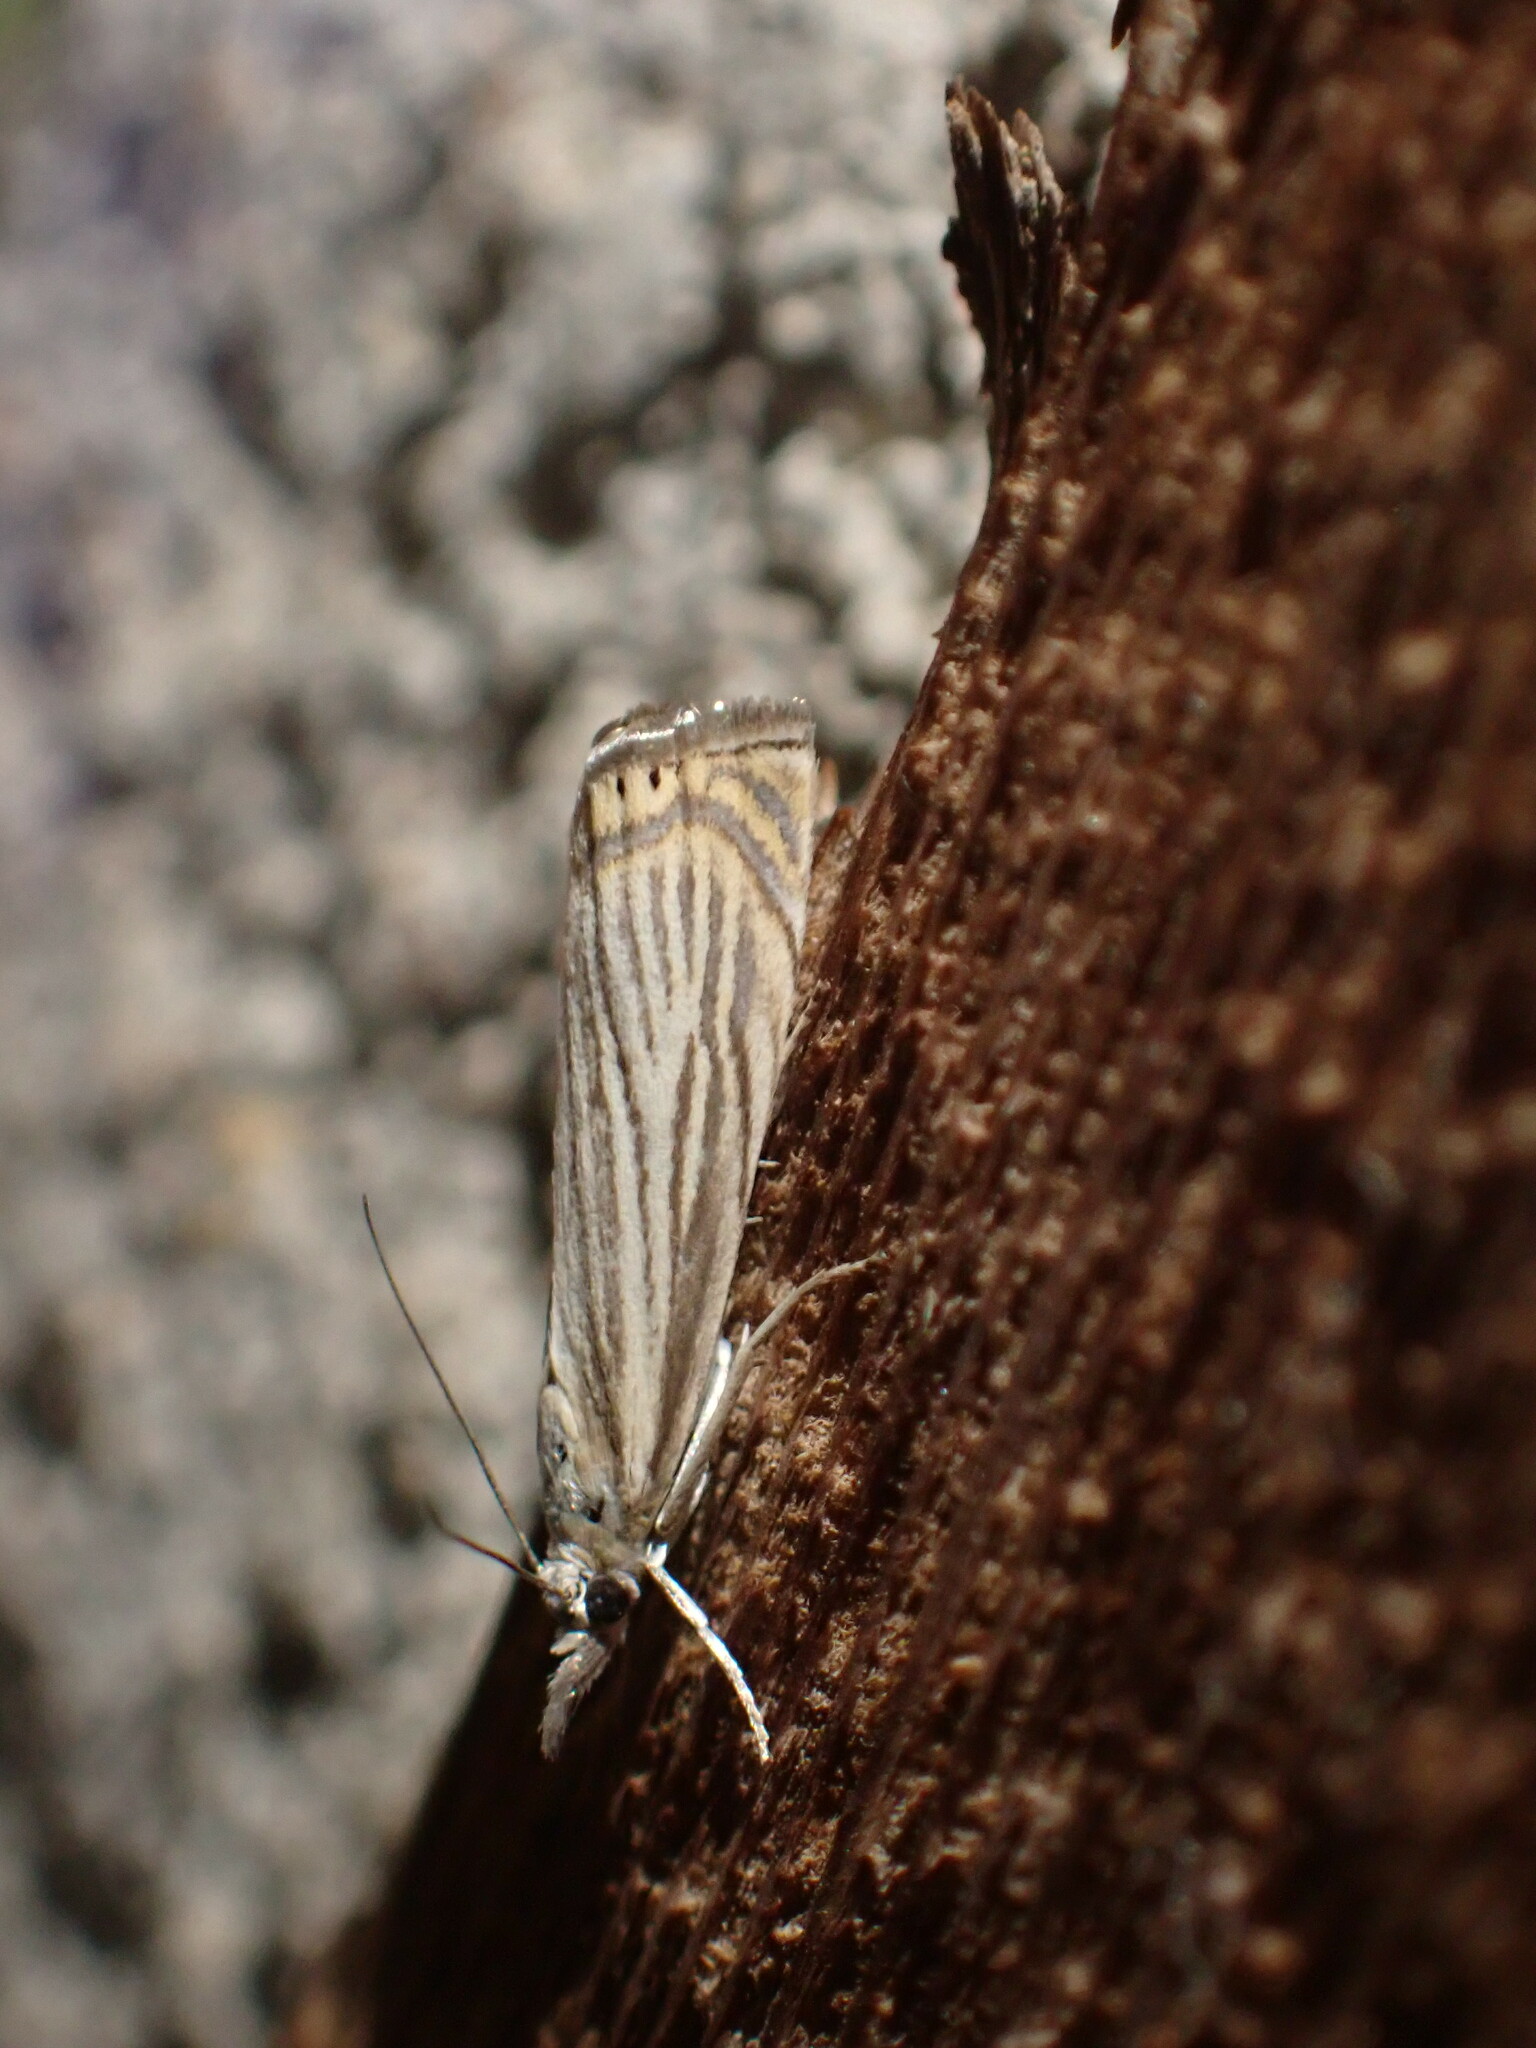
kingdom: Animalia
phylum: Arthropoda
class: Insecta
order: Lepidoptera
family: Crambidae
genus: Chrysoteuchia
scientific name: Chrysoteuchia topiarius
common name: Topiary grass-veneer
